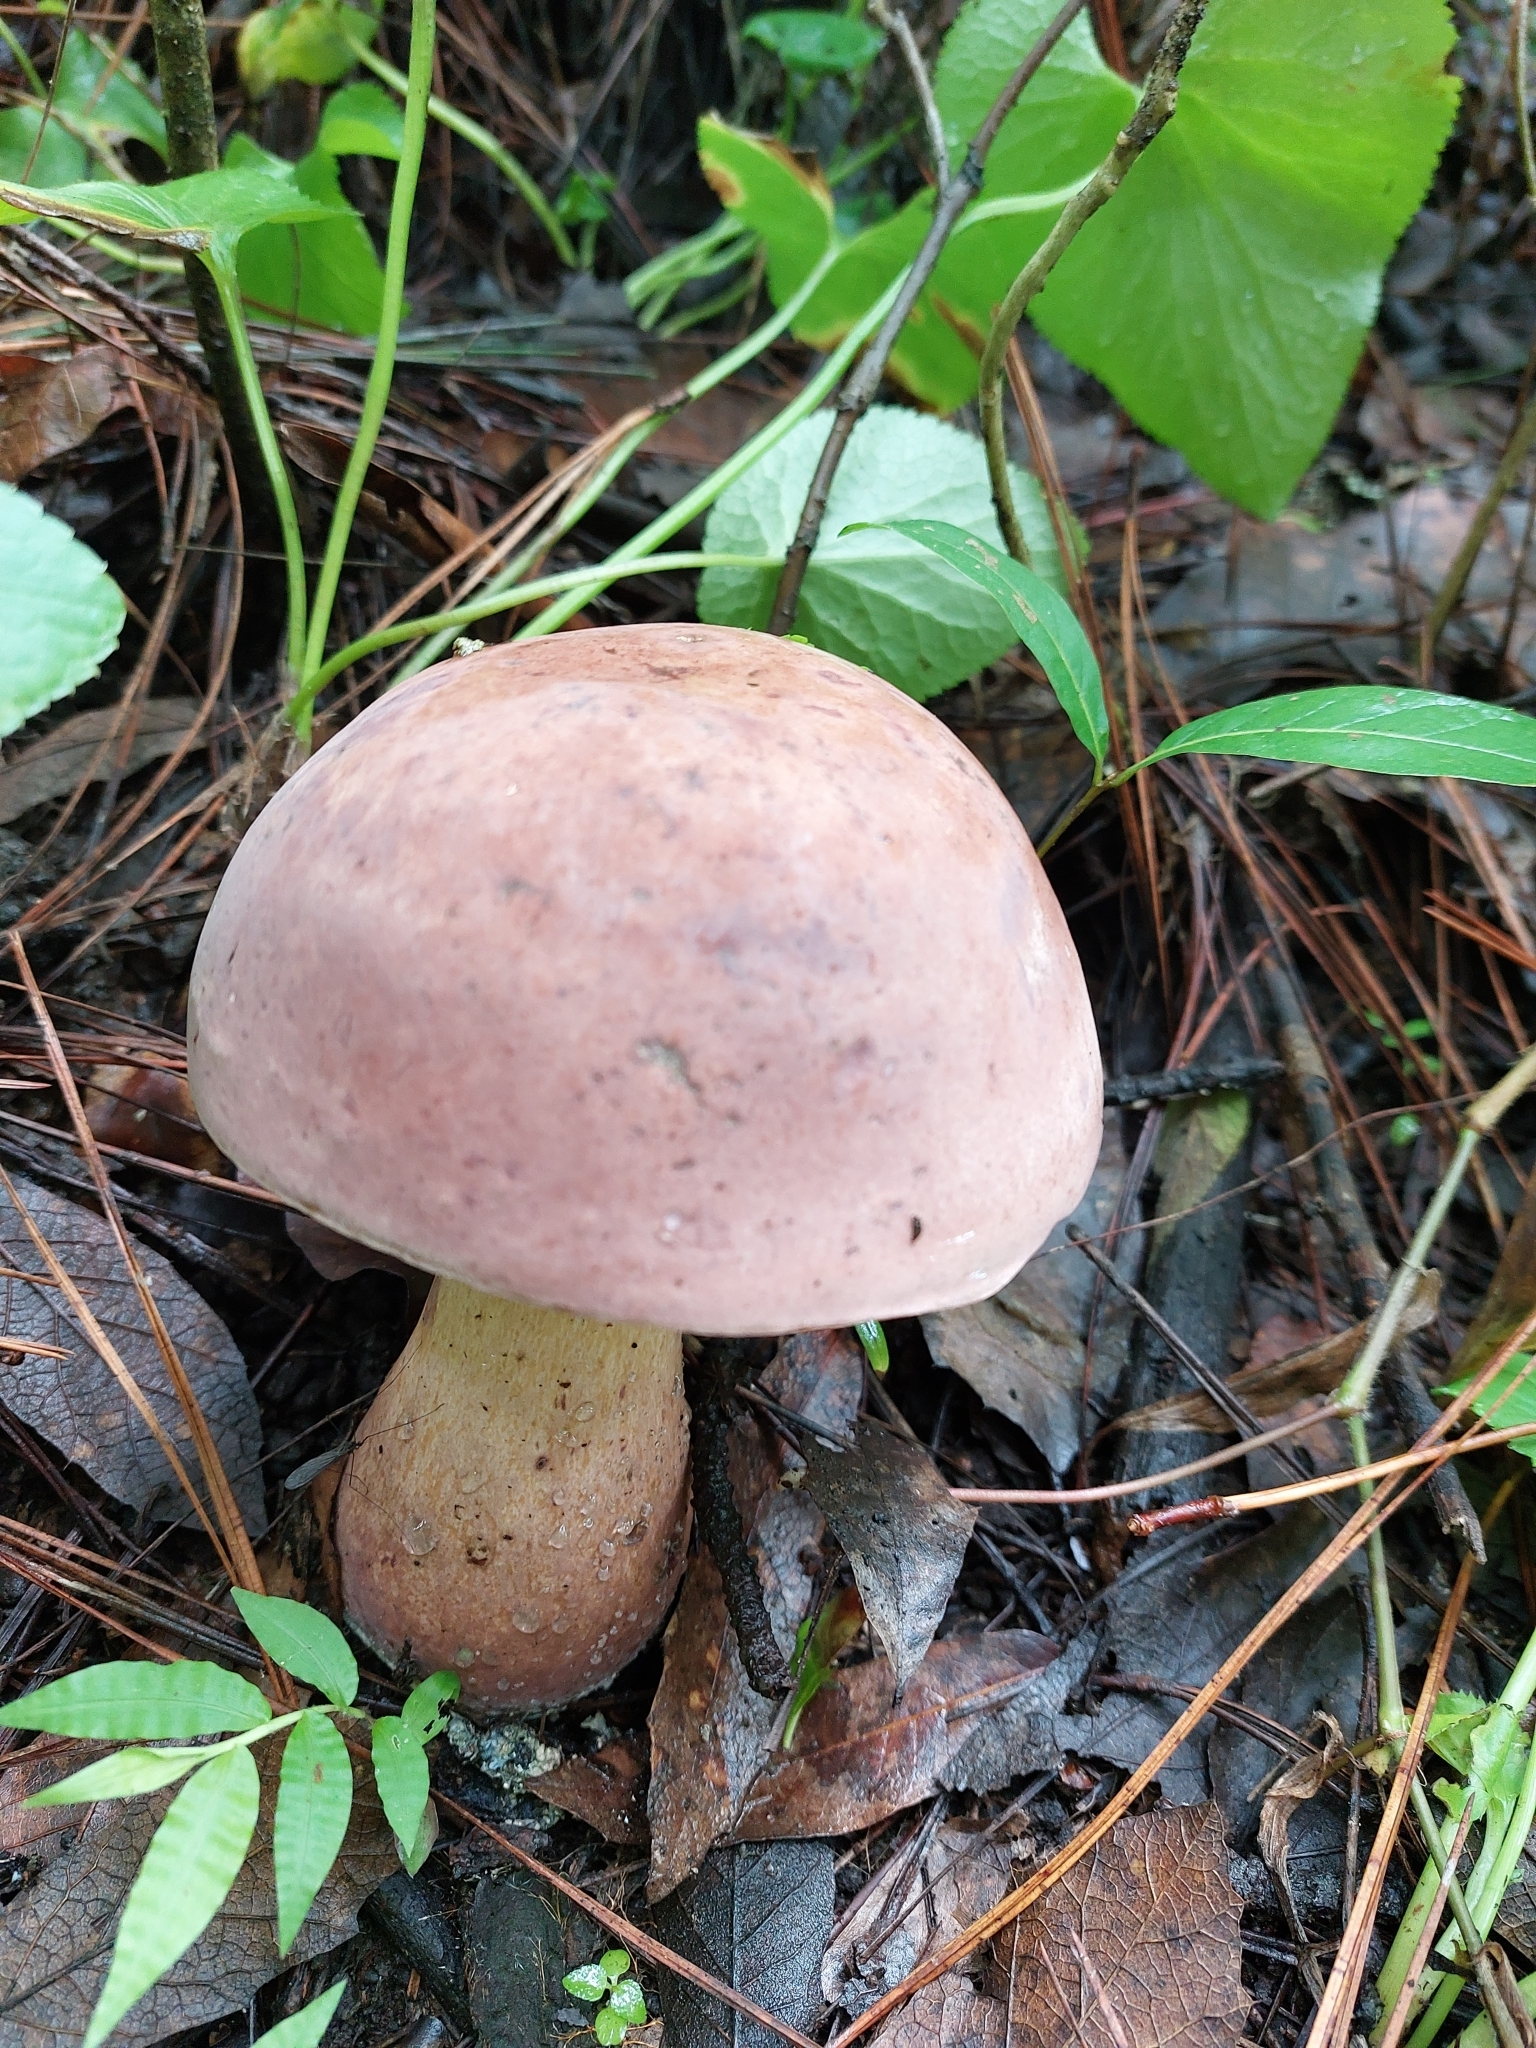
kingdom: Fungi
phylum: Basidiomycota
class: Agaricomycetes
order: Boletales
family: Boletaceae
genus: Tylopilus
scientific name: Tylopilus rubrobrunneus
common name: Reddish brown bitter bolete
